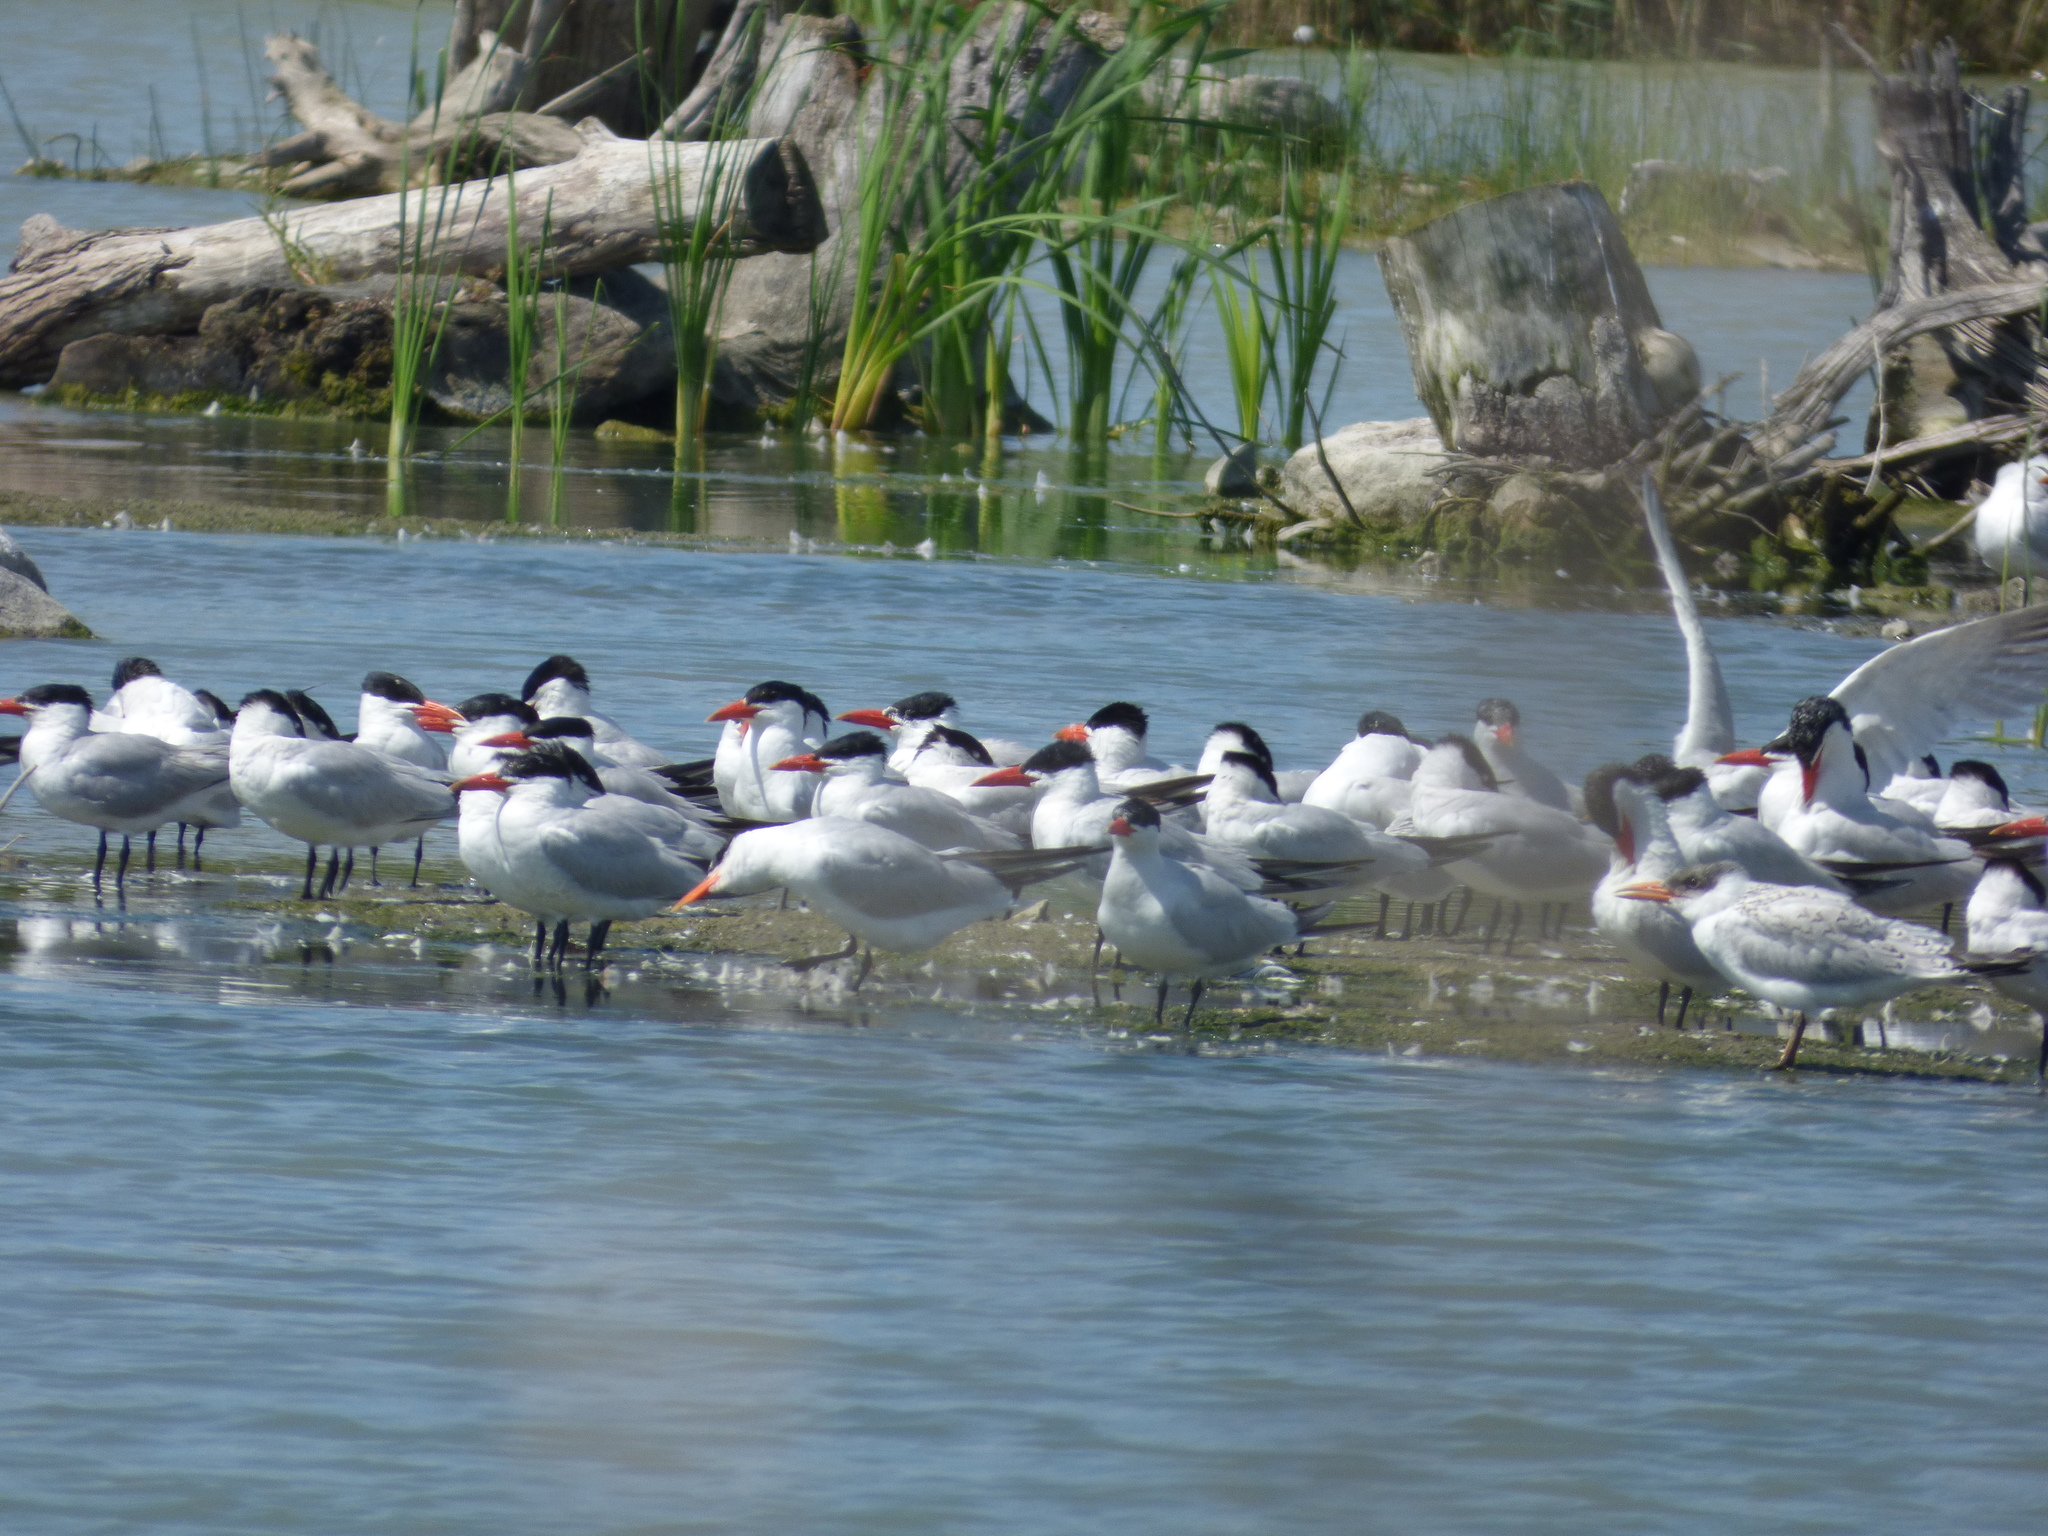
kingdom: Animalia
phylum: Chordata
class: Aves
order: Charadriiformes
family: Laridae
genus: Hydroprogne
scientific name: Hydroprogne caspia
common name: Caspian tern
